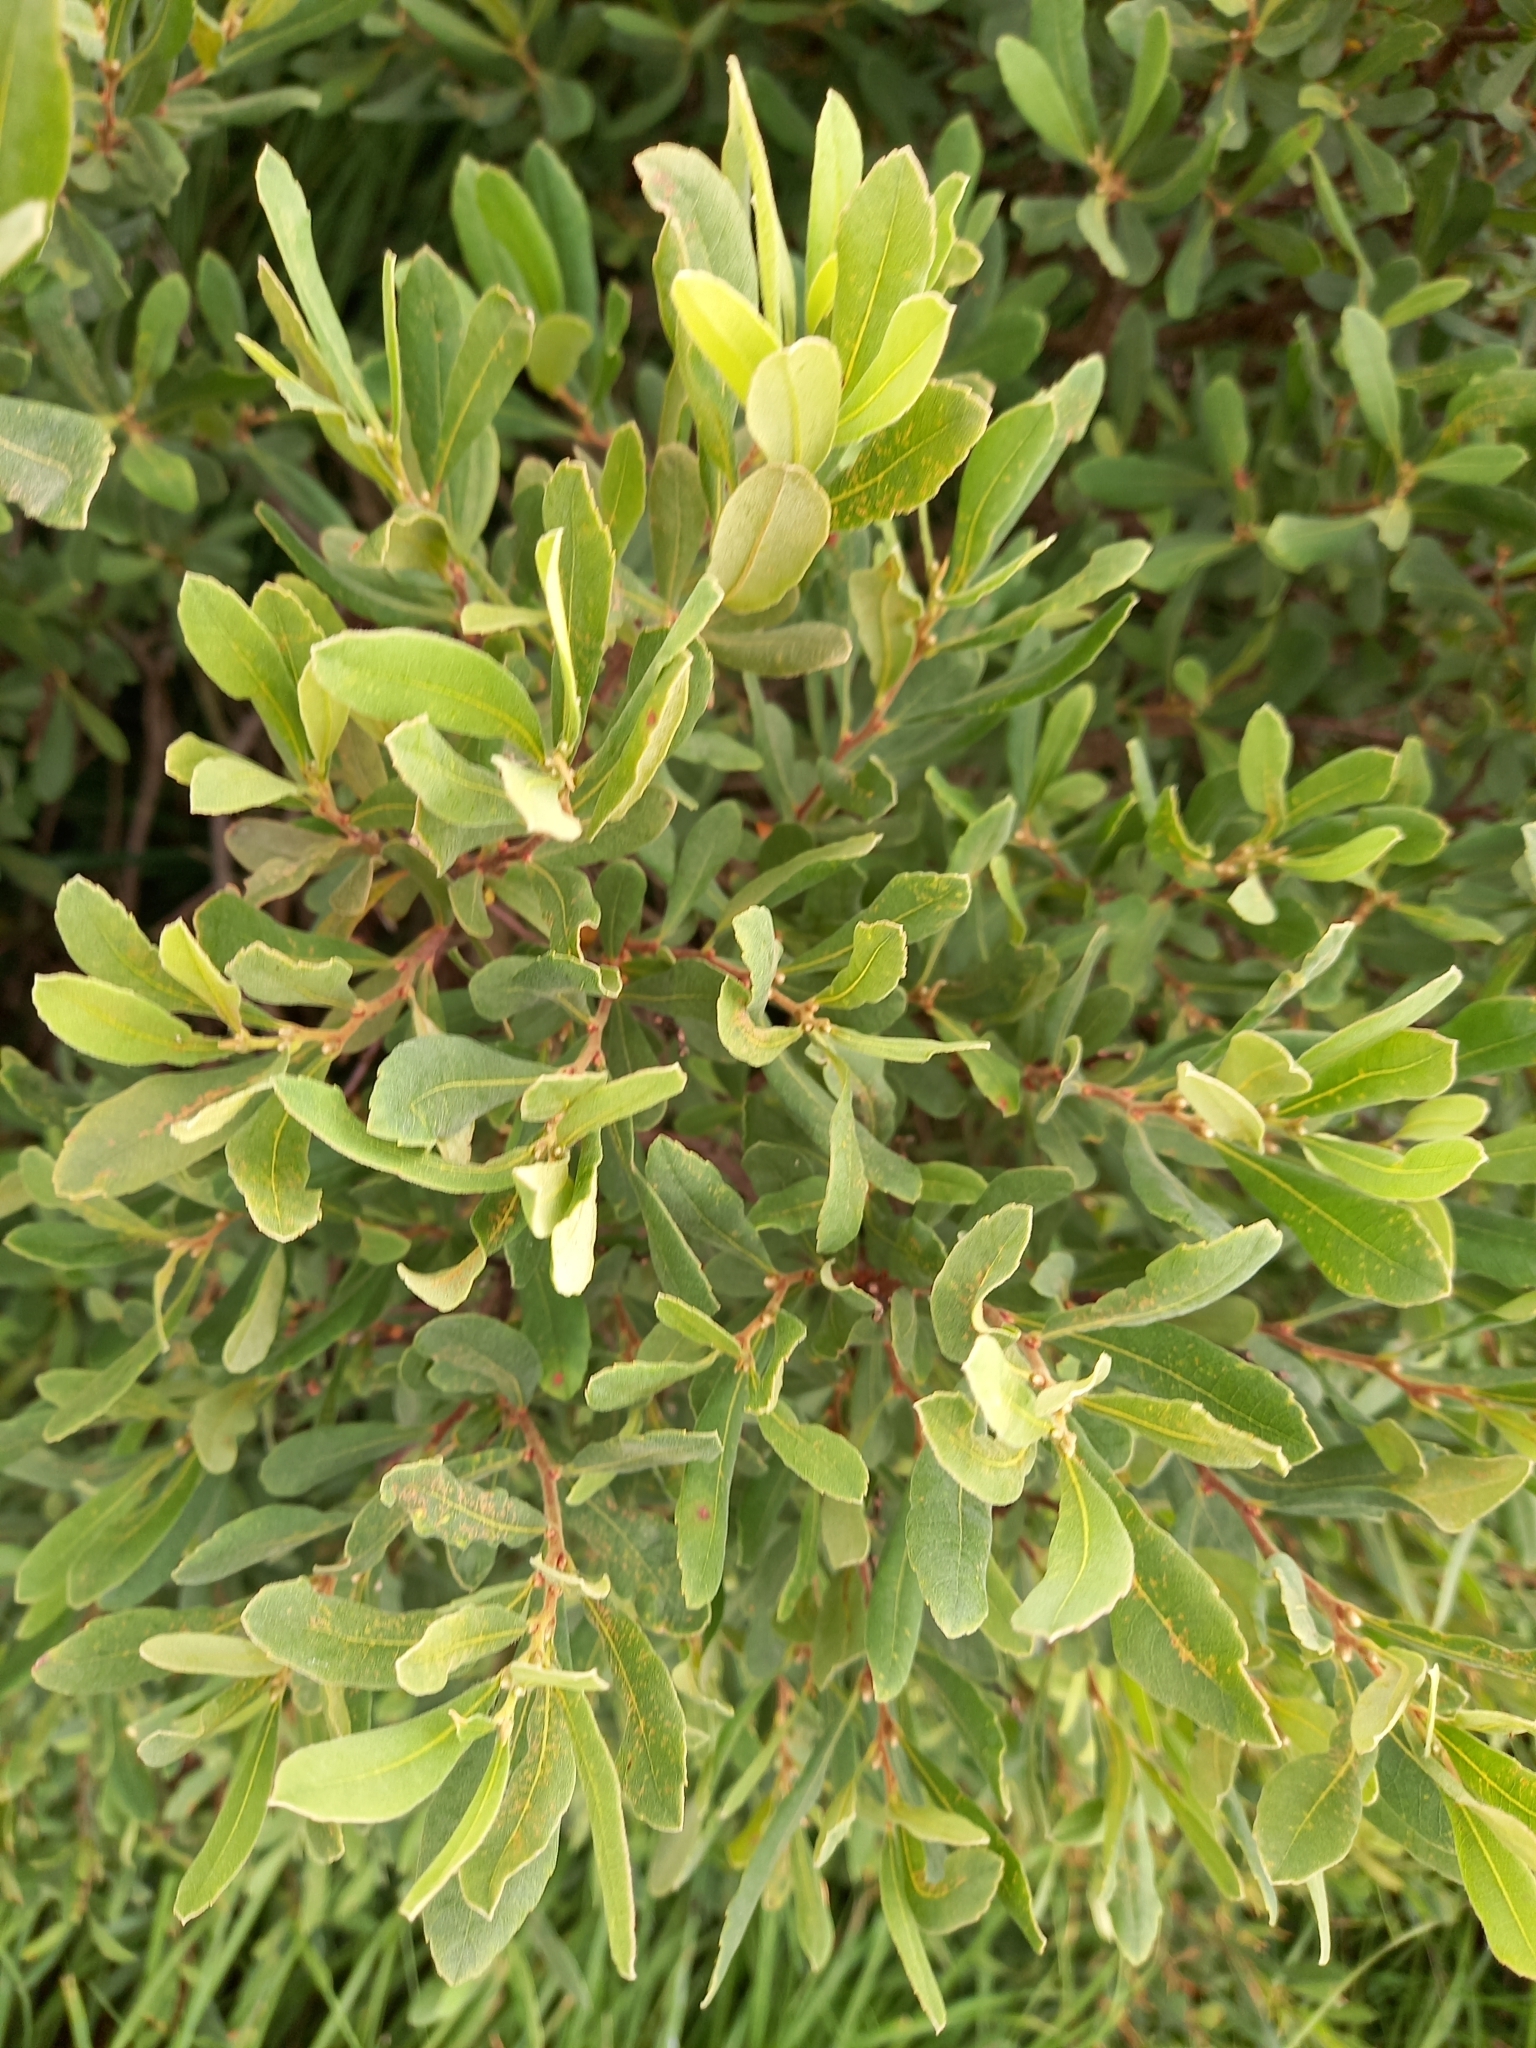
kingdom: Plantae
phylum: Tracheophyta
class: Magnoliopsida
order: Fagales
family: Myricaceae
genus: Myrica
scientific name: Myrica gale
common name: Sweet gale
